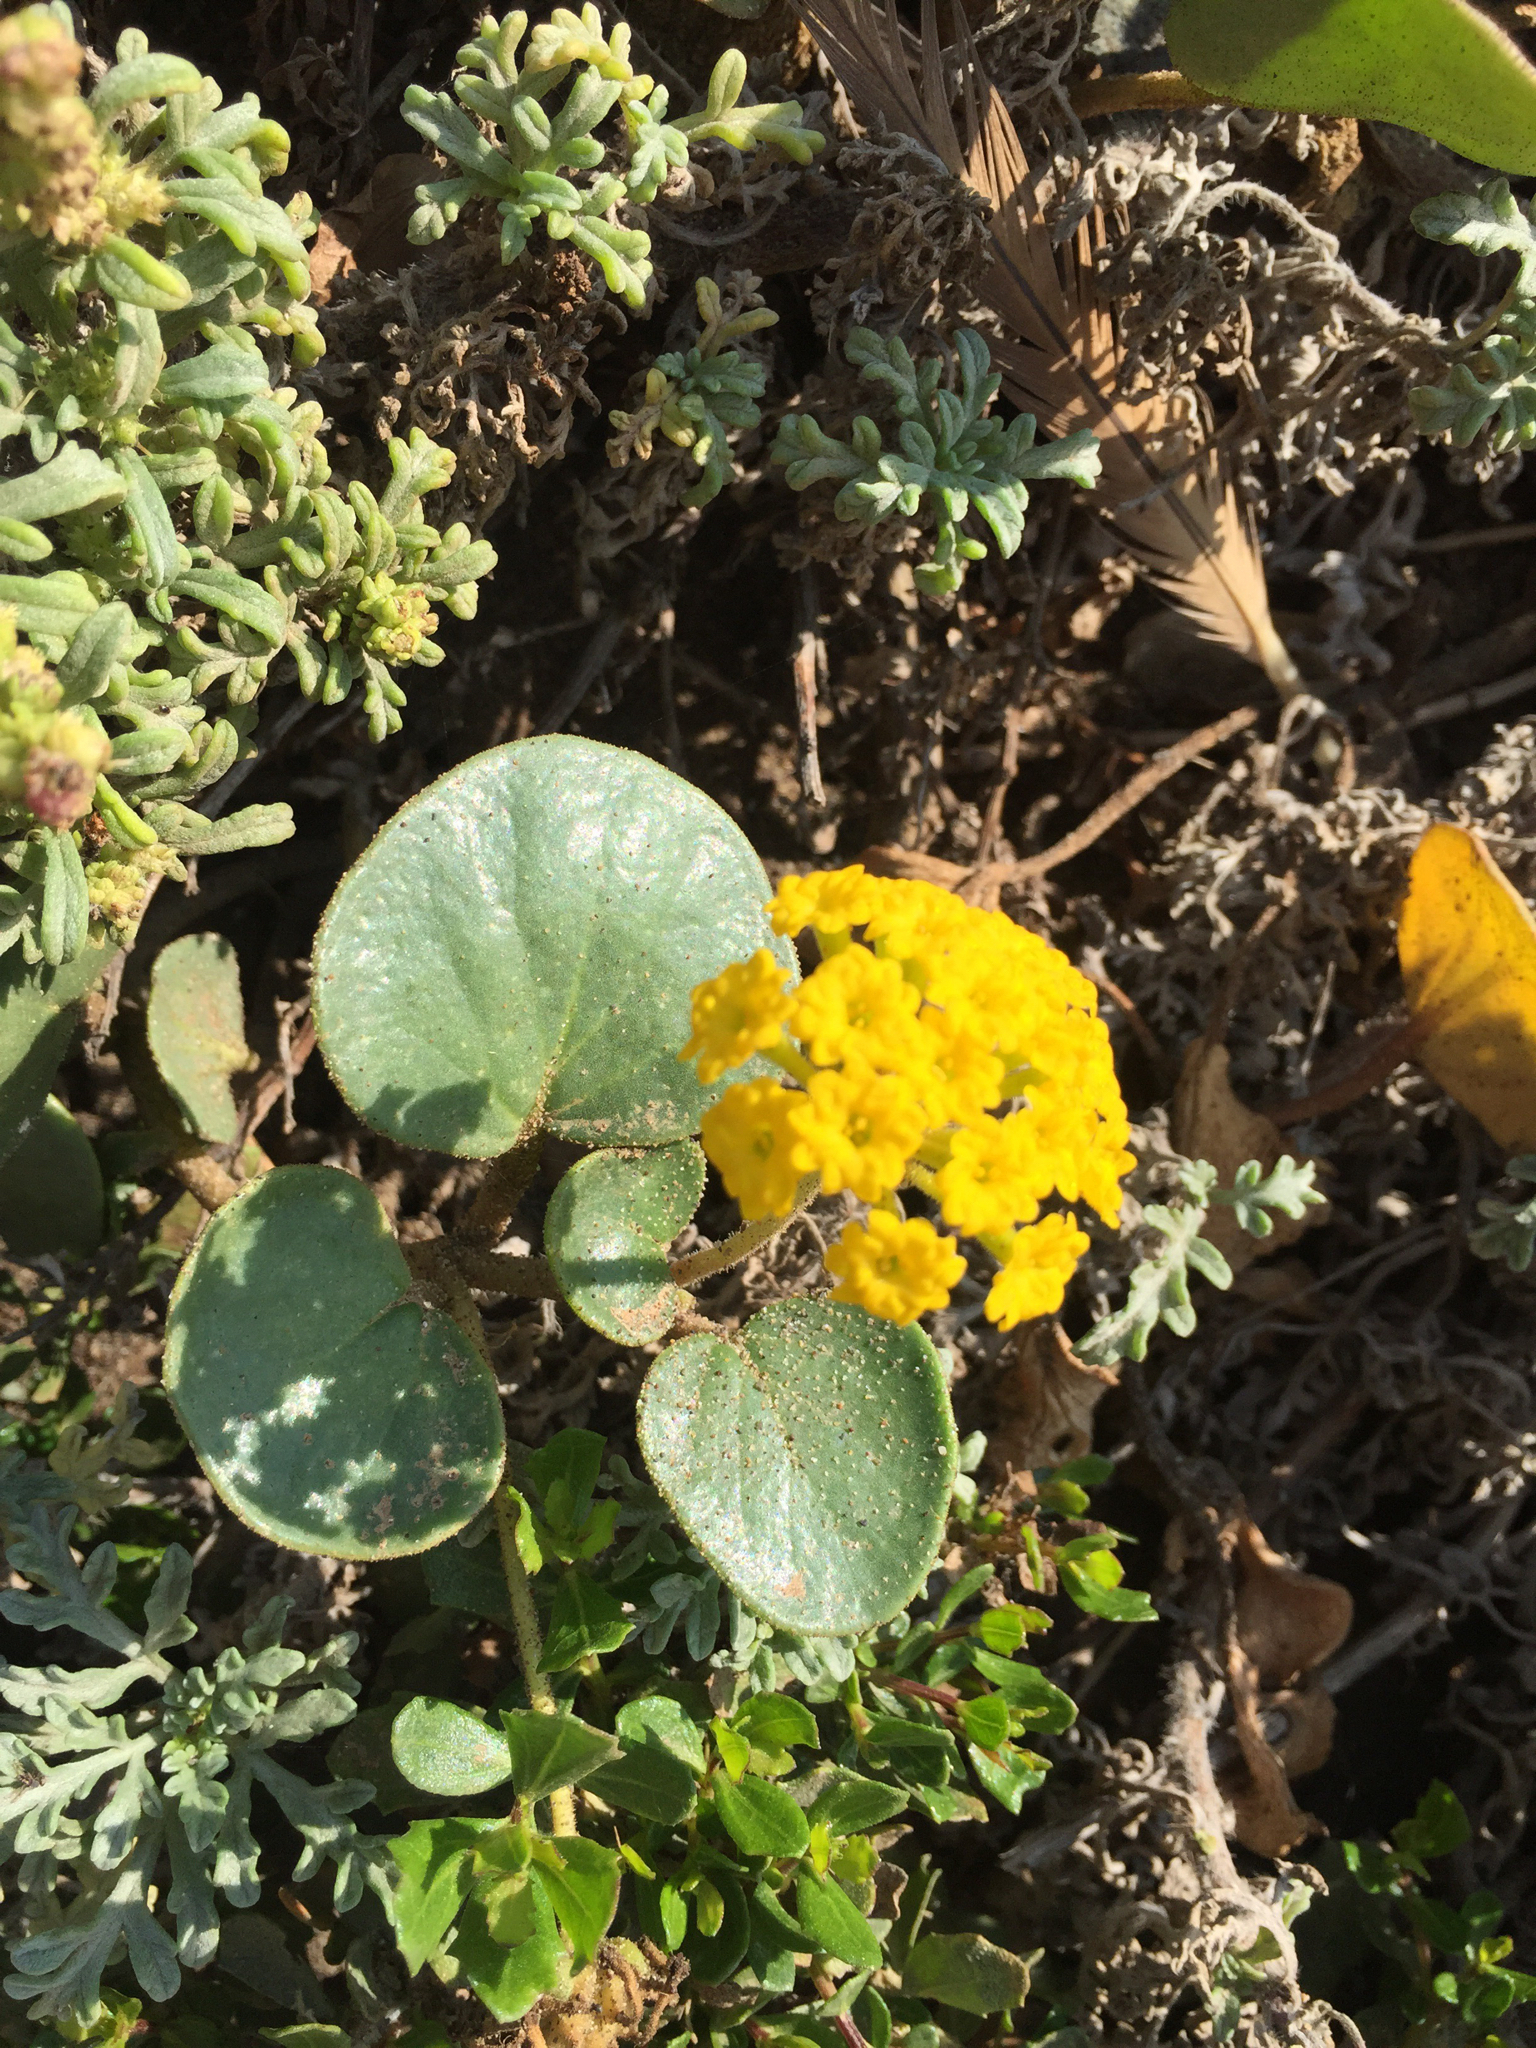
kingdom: Plantae
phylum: Tracheophyta
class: Magnoliopsida
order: Caryophyllales
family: Nyctaginaceae
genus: Abronia
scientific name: Abronia latifolia
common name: Yellow sand-verbena
